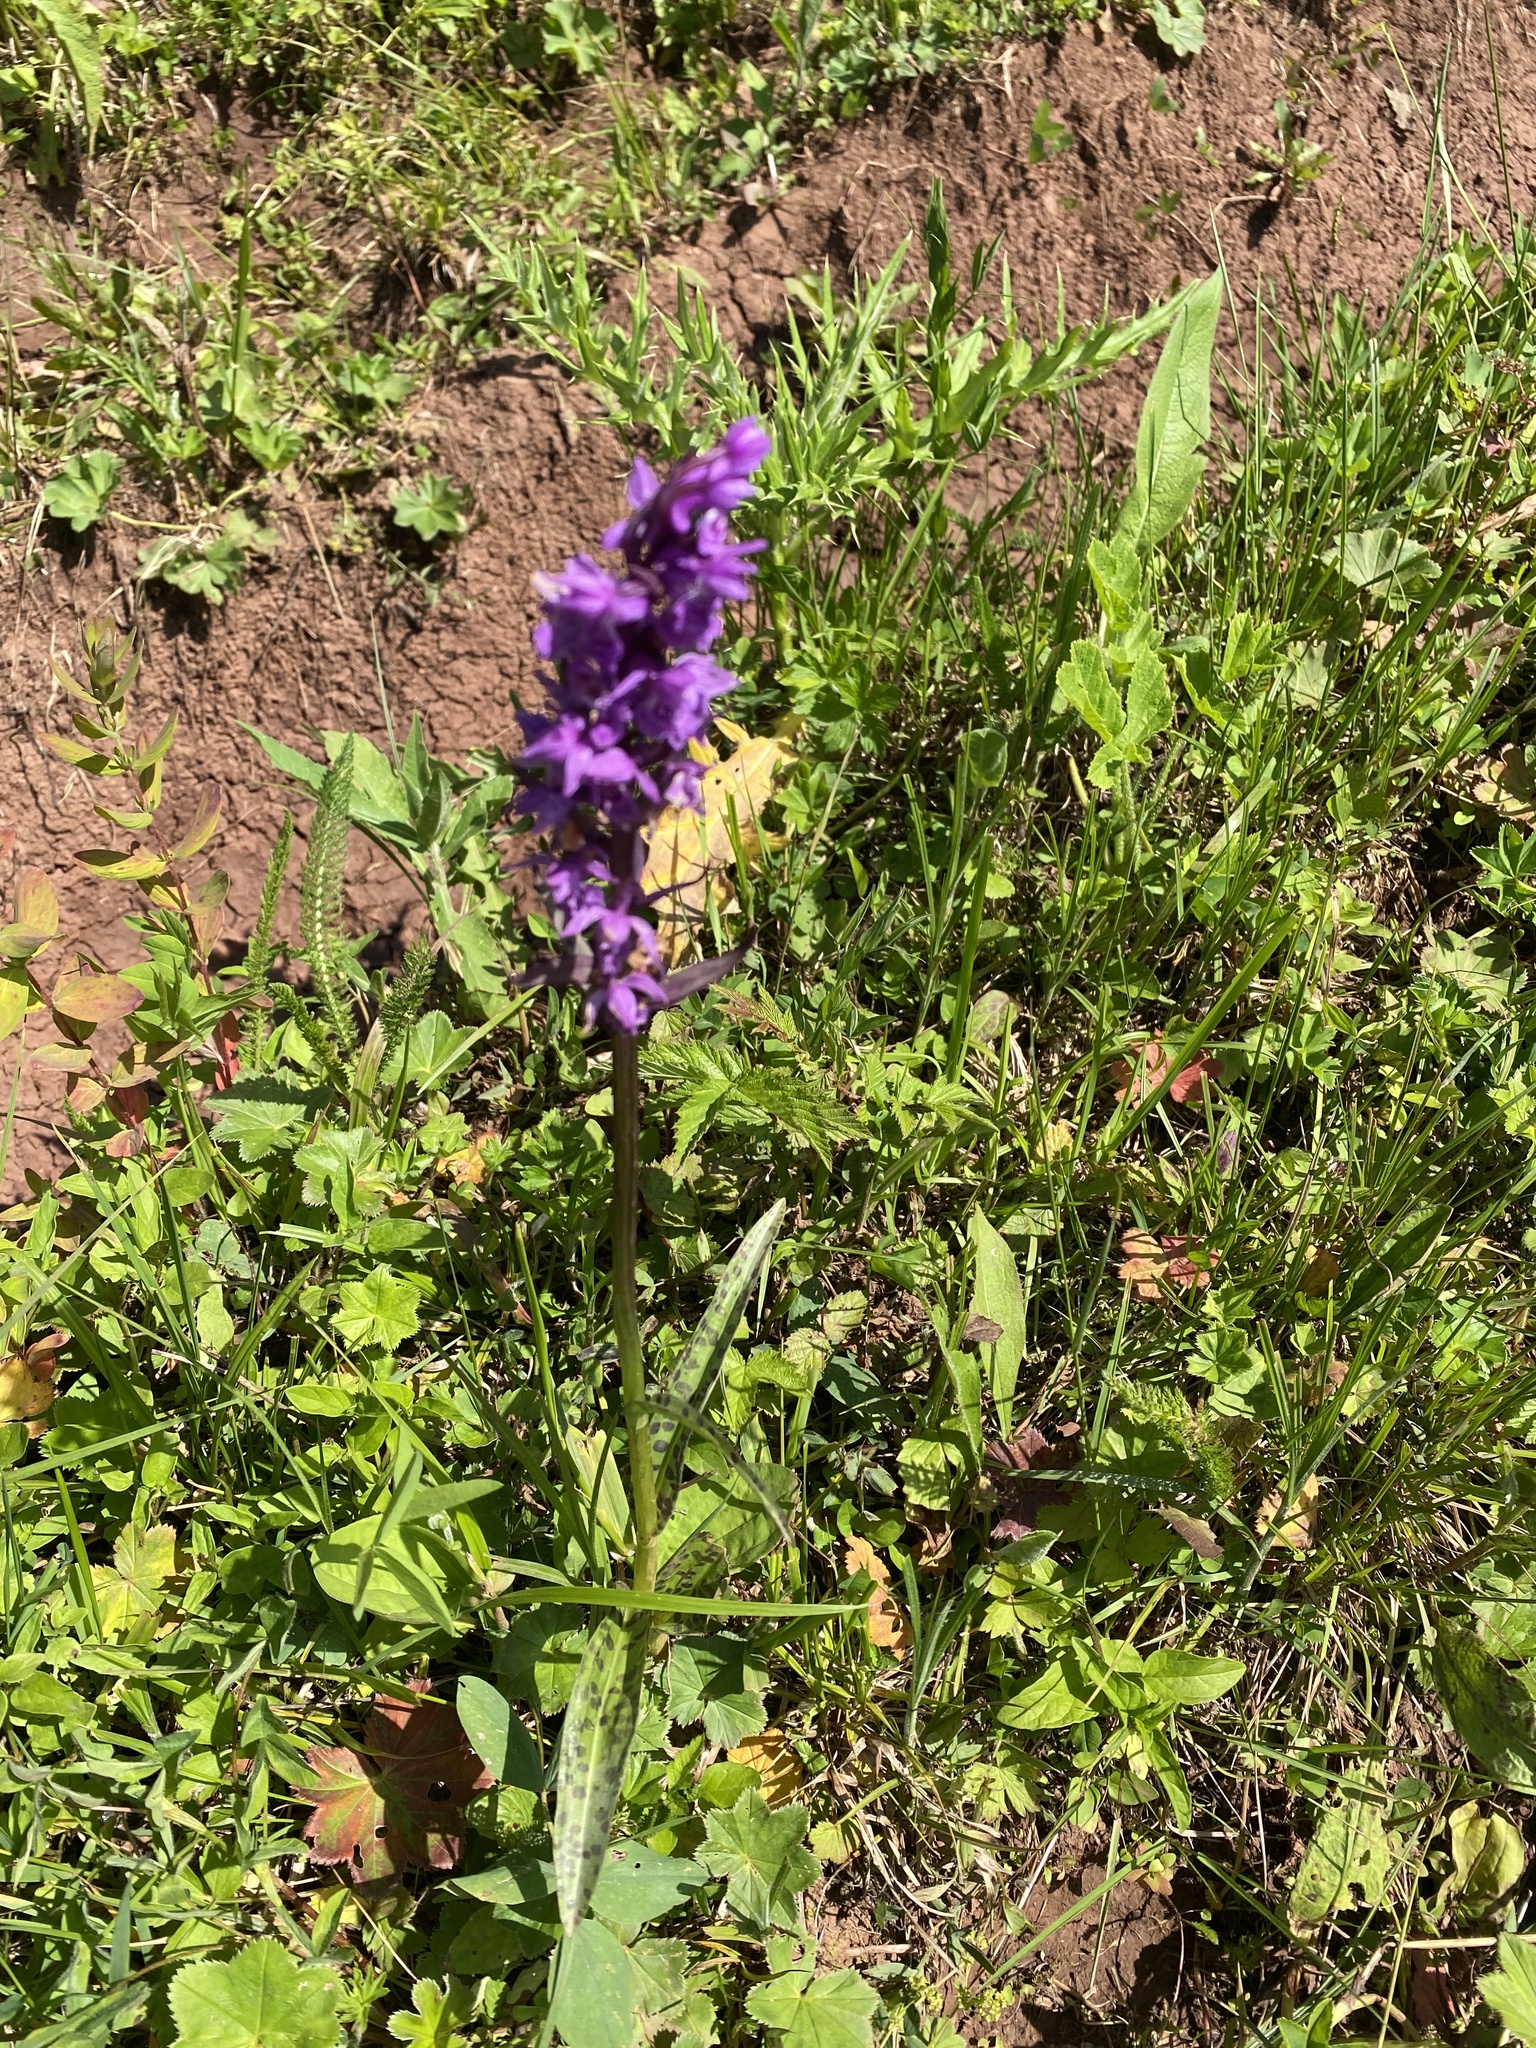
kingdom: Plantae
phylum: Tracheophyta
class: Liliopsida
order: Asparagales
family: Orchidaceae
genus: Dactylorhiza
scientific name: Dactylorhiza urvilleana
